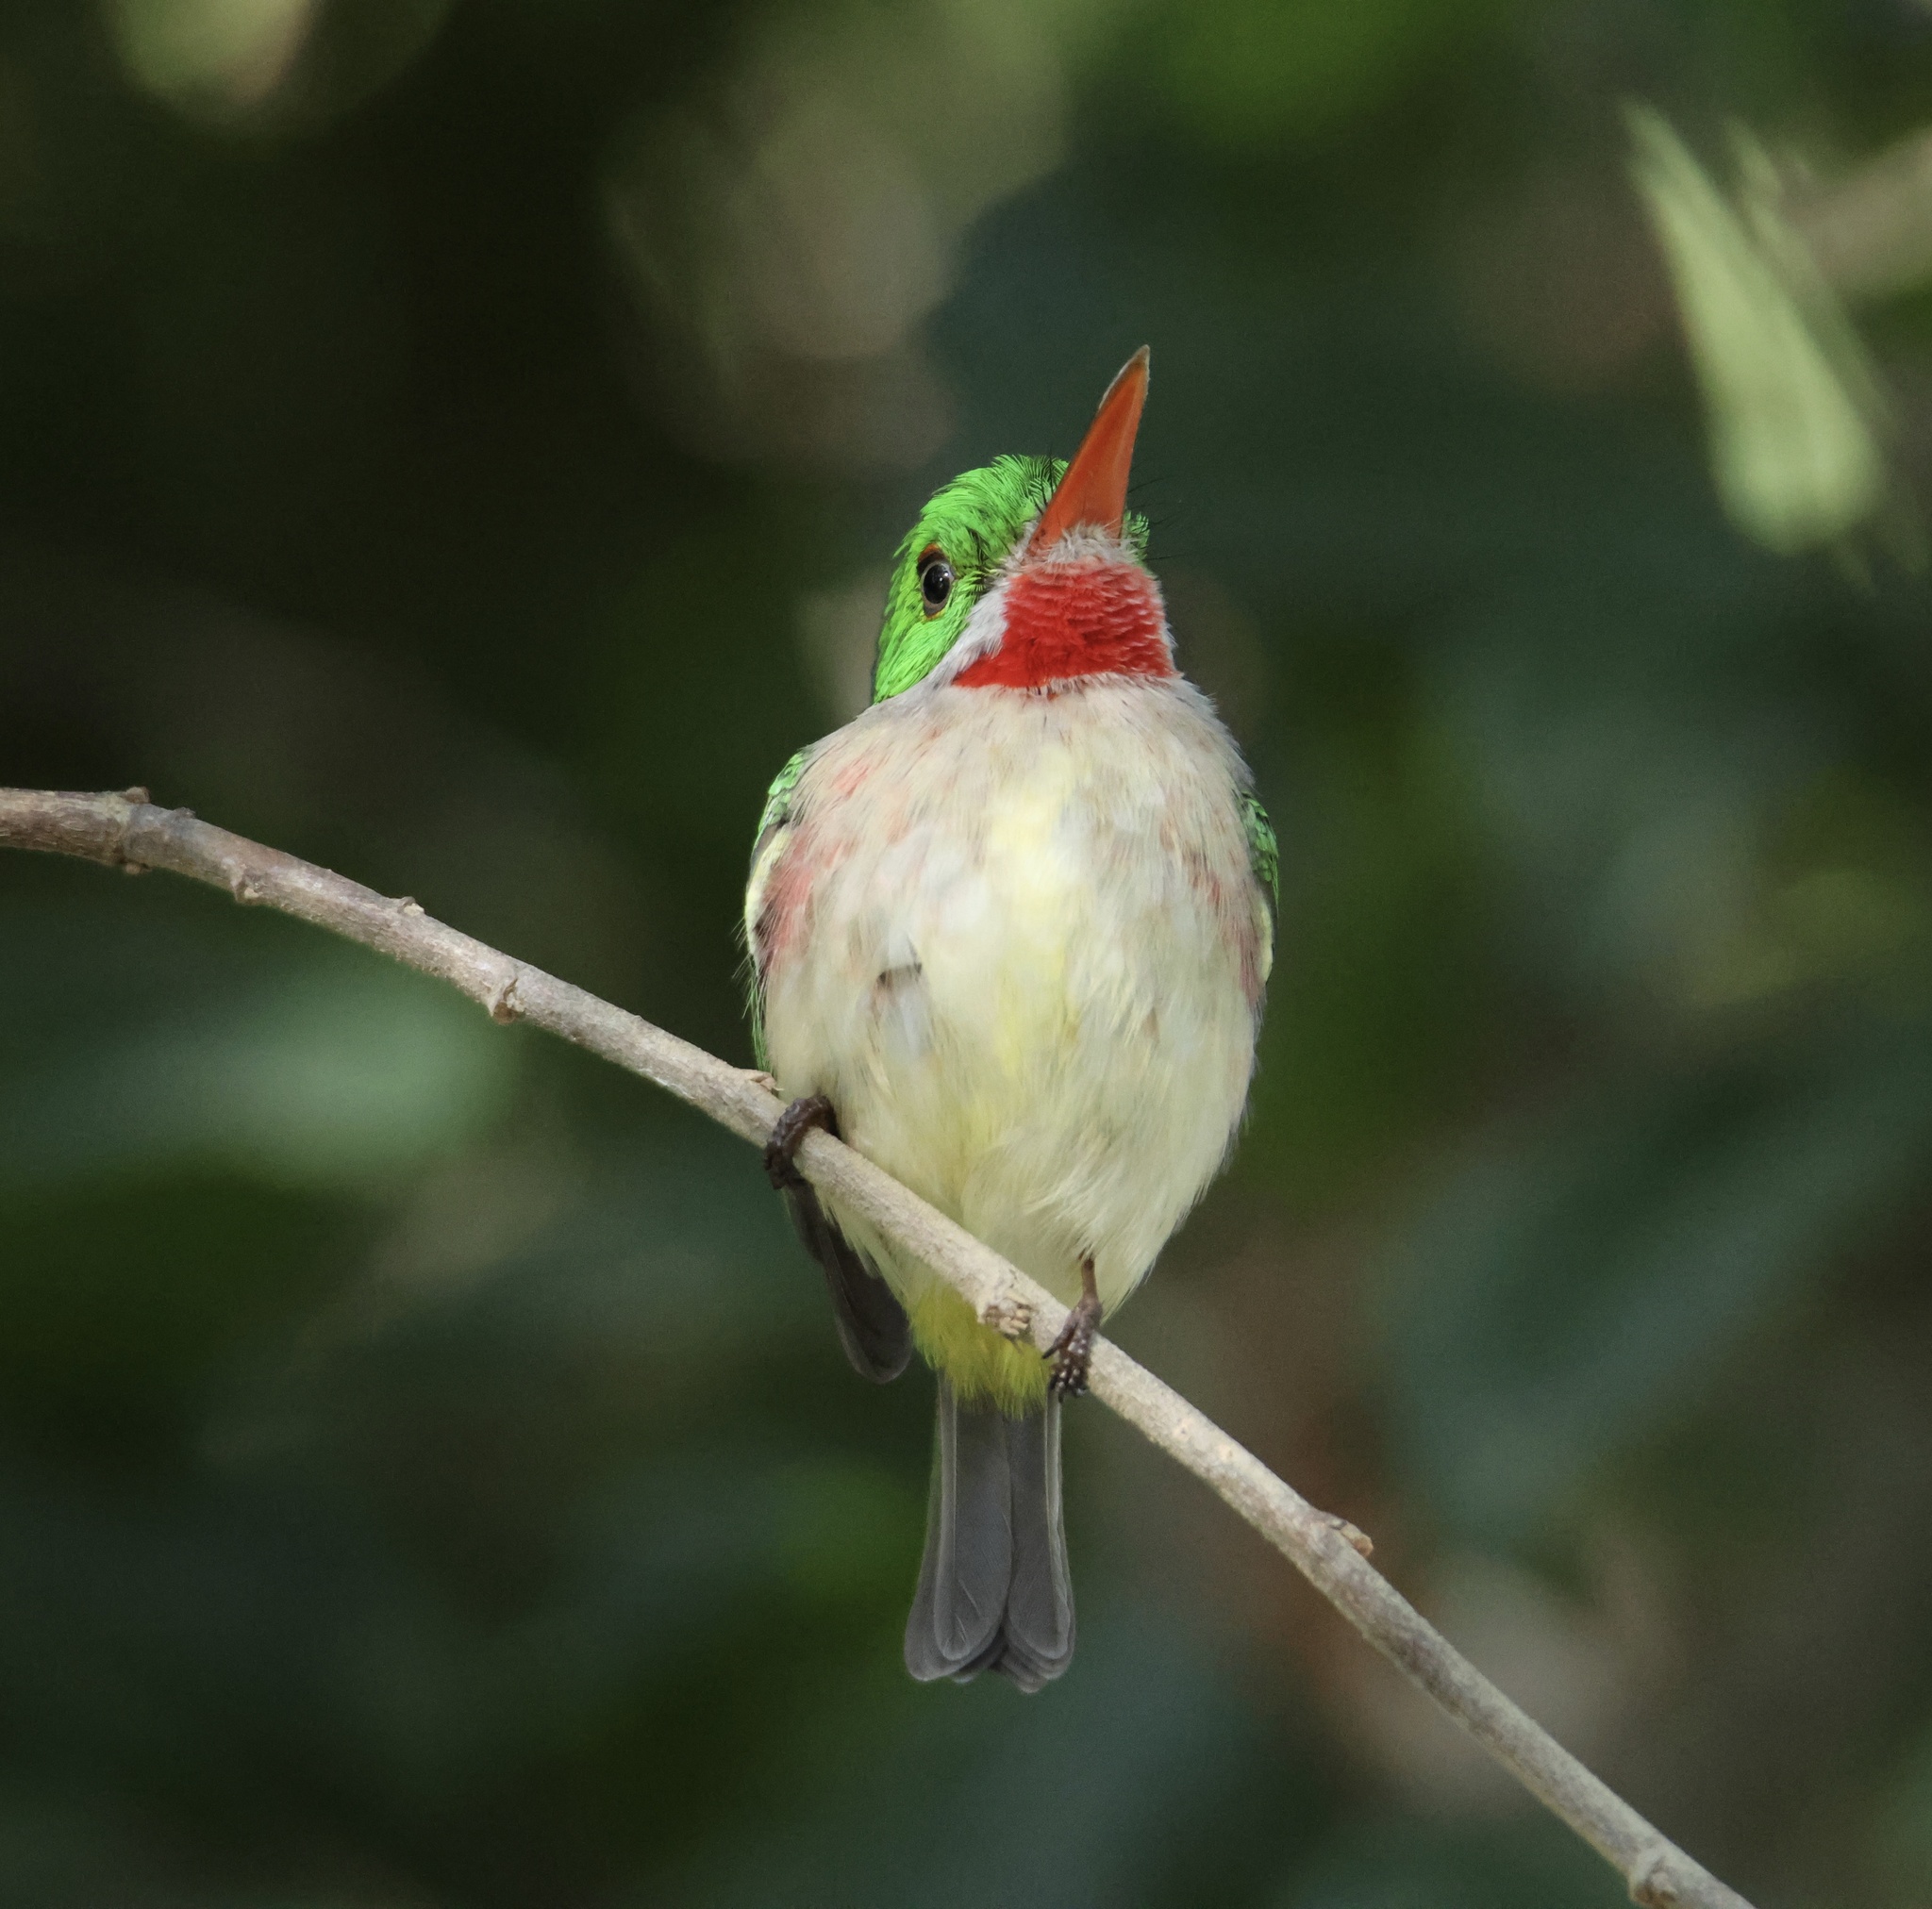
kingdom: Animalia
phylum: Chordata
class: Aves
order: Coraciiformes
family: Todidae
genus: Todus
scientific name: Todus subulatus
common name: Broad-billed tody
